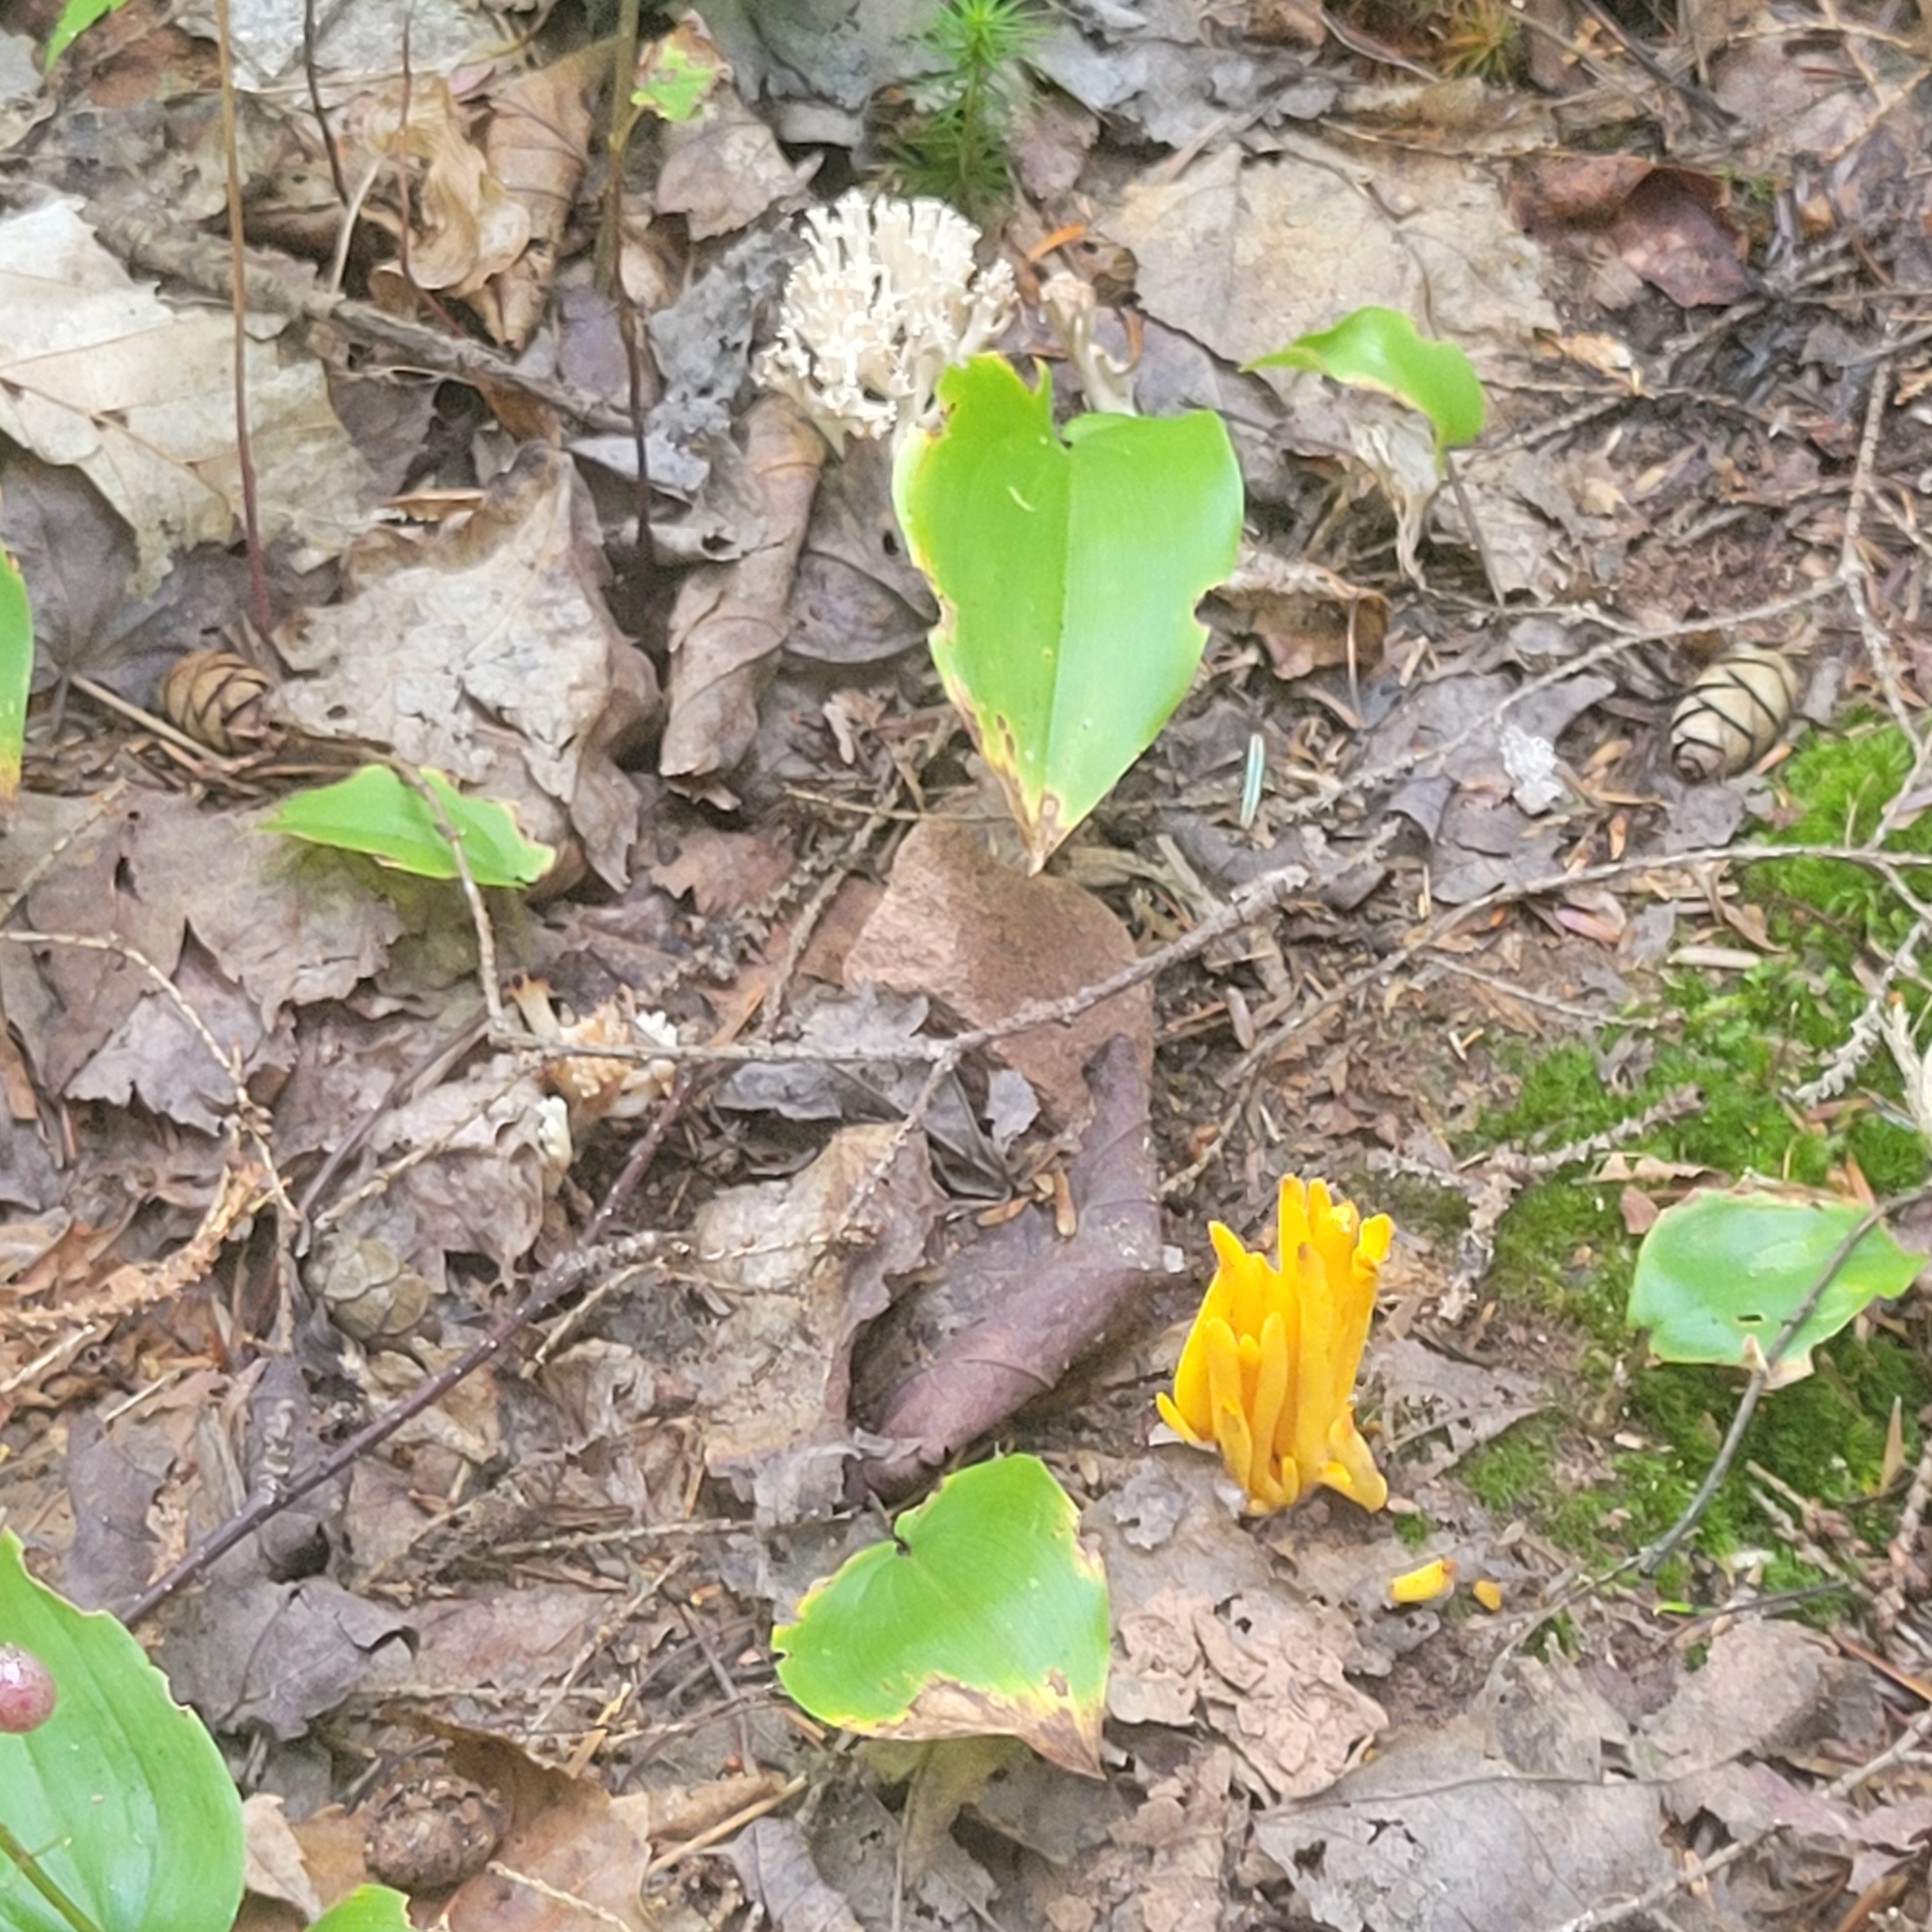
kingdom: Fungi
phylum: Basidiomycota
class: Agaricomycetes
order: Agaricales
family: Clavariaceae
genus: Clavulinopsis
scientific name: Clavulinopsis fusiformis
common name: Golden spindles
